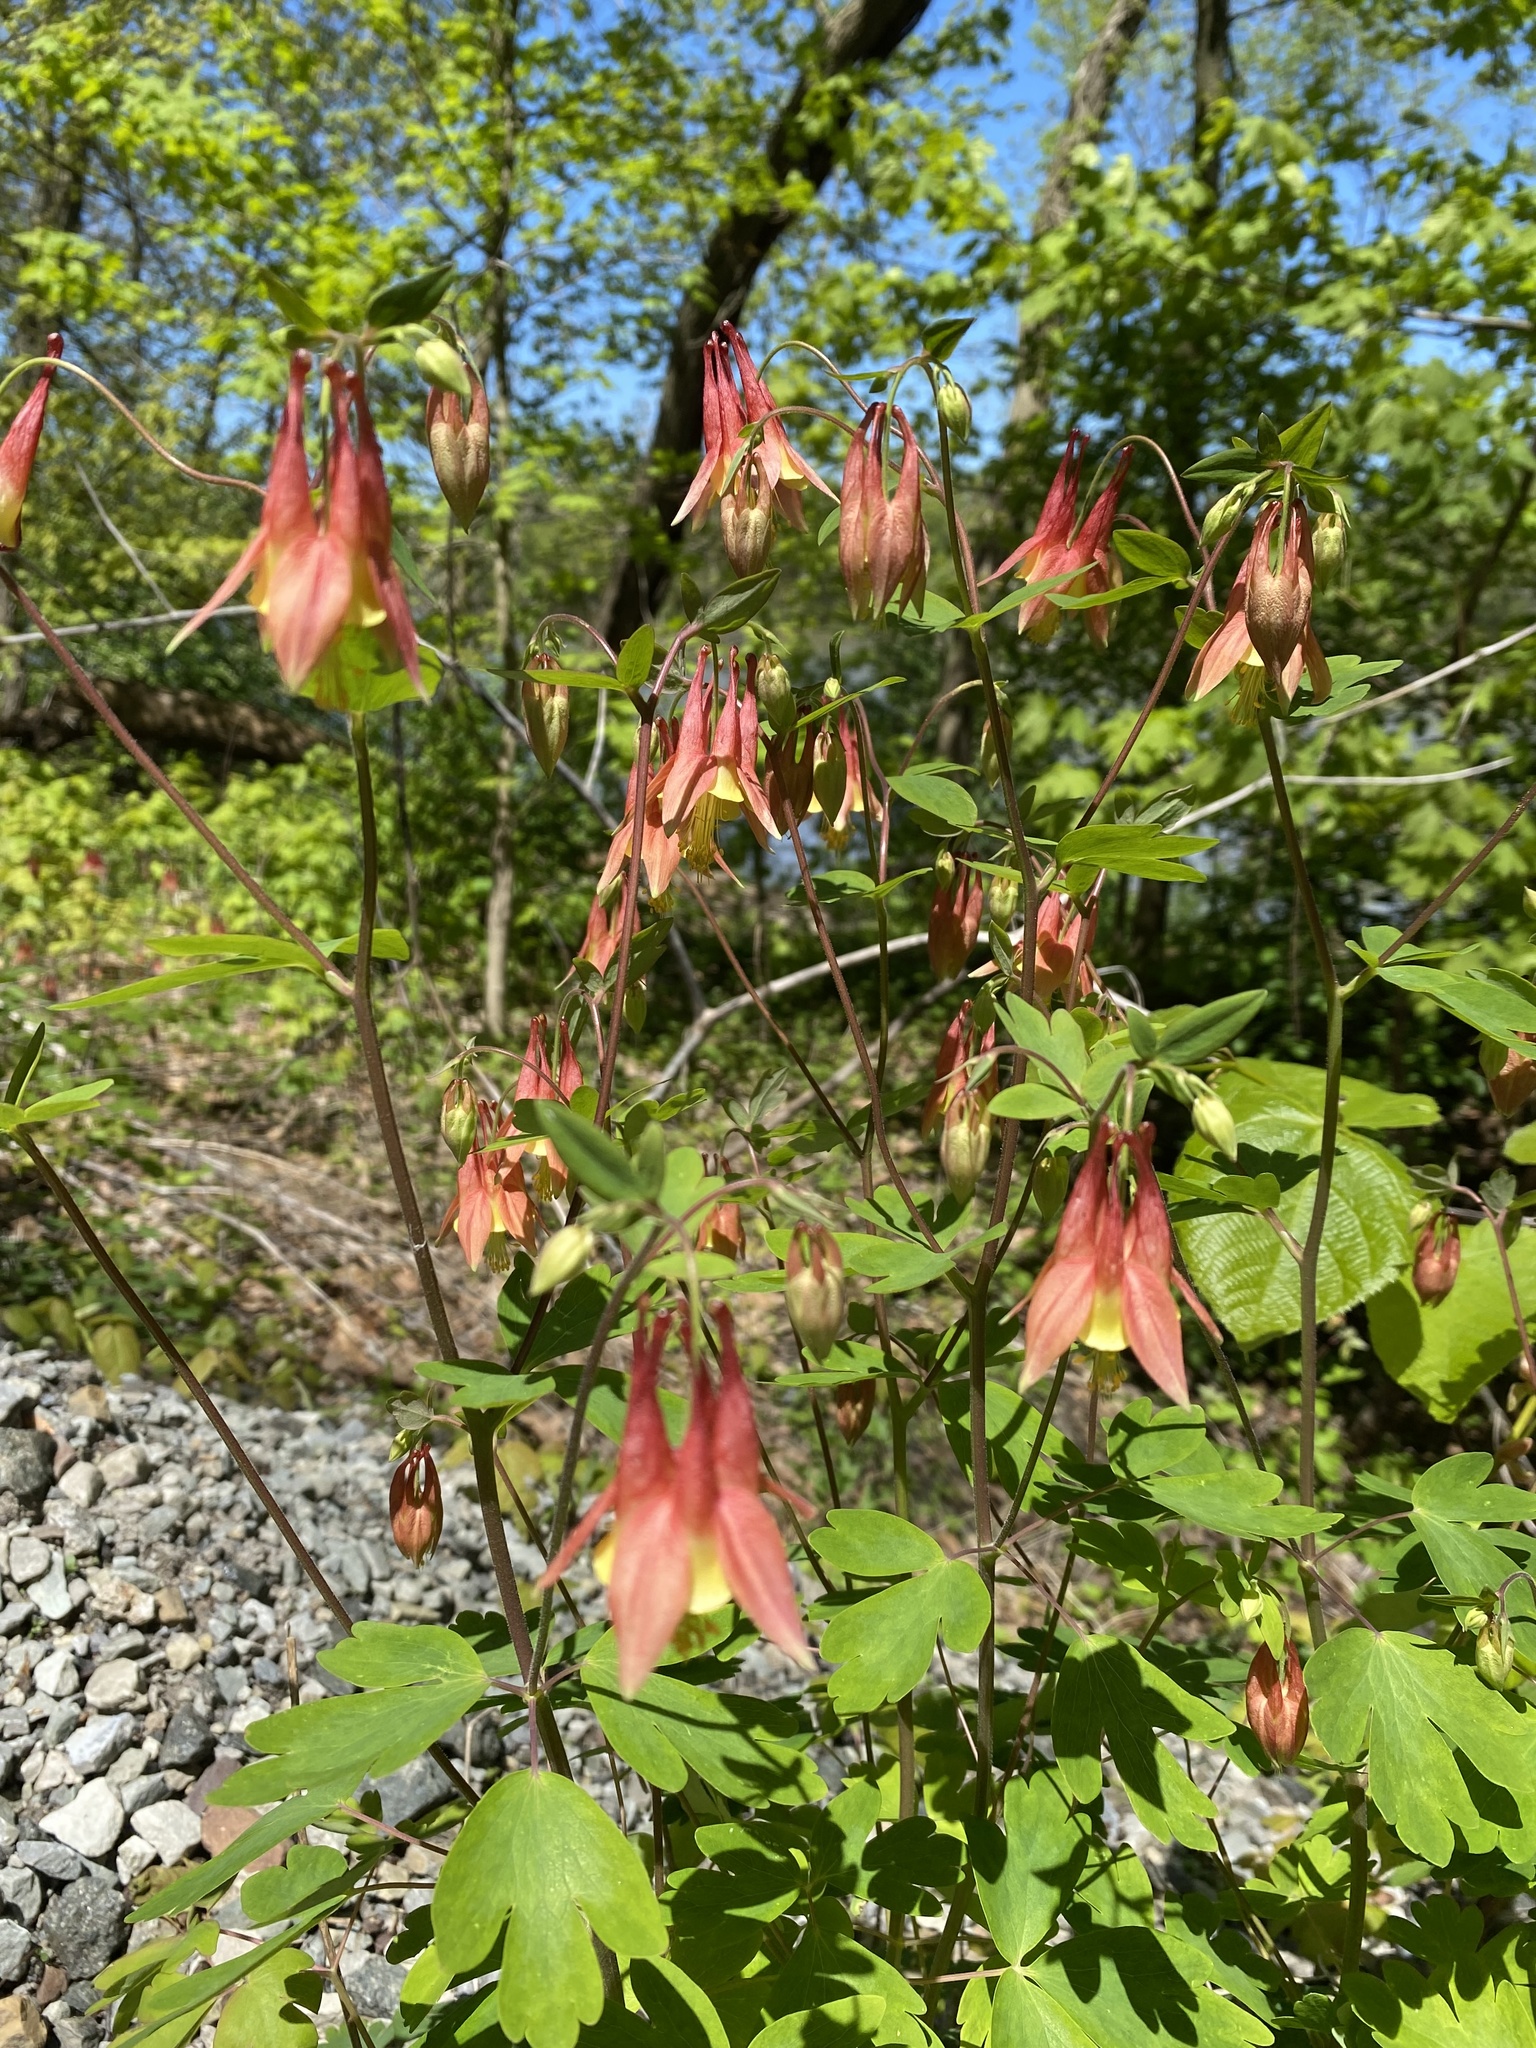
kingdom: Plantae
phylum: Tracheophyta
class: Magnoliopsida
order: Ranunculales
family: Ranunculaceae
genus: Aquilegia
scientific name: Aquilegia canadensis
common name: American columbine
